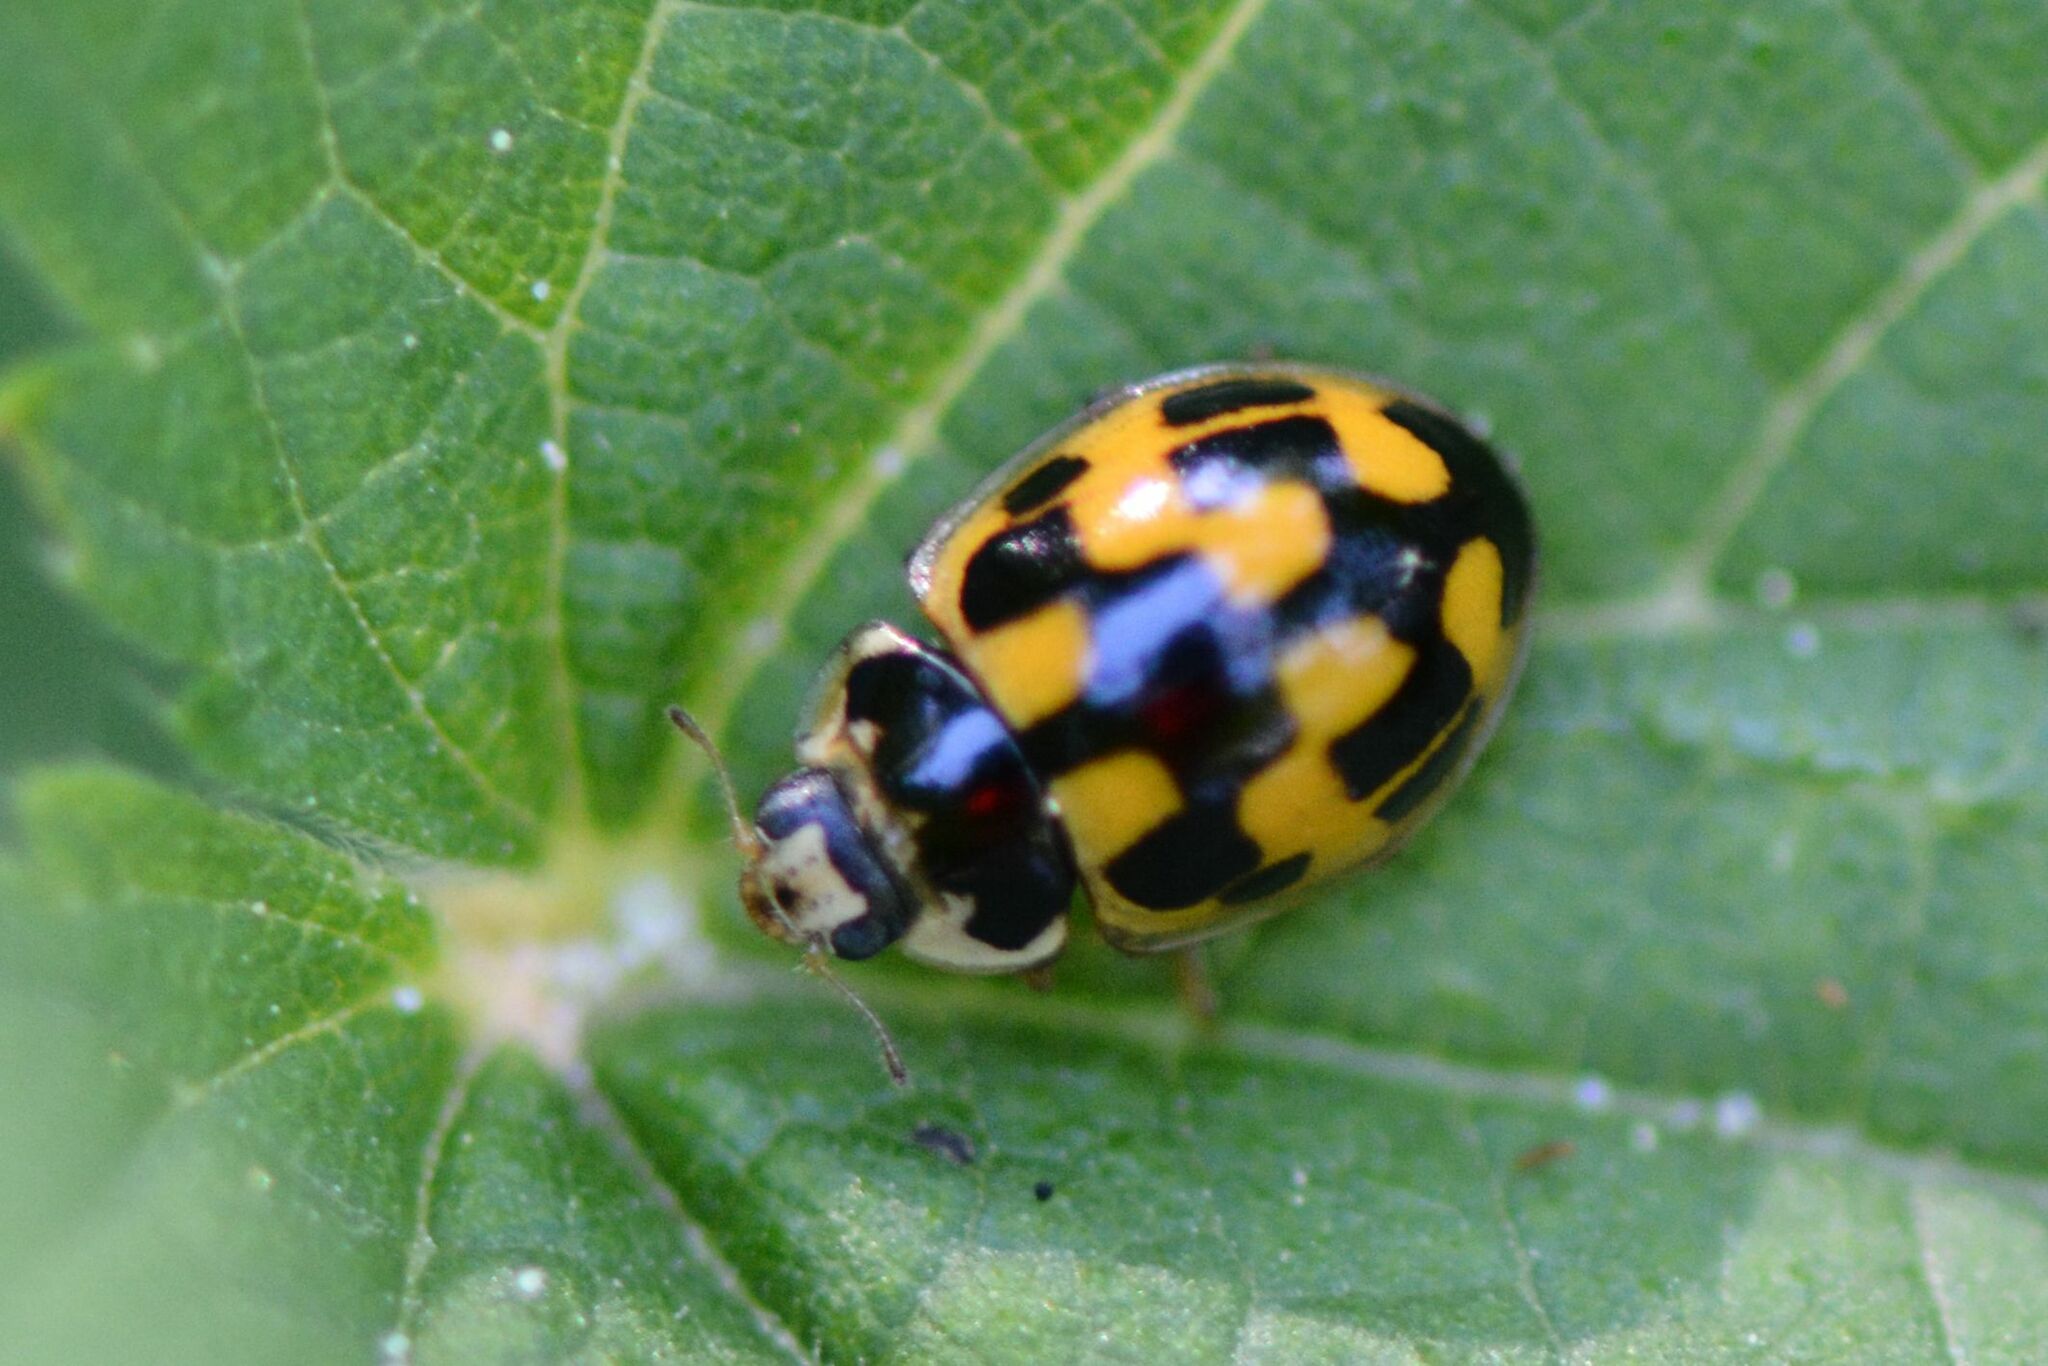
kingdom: Animalia
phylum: Arthropoda
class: Insecta
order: Coleoptera
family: Coccinellidae
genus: Propylaea
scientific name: Propylaea quatuordecimpunctata
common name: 14-spotted ladybird beetle
